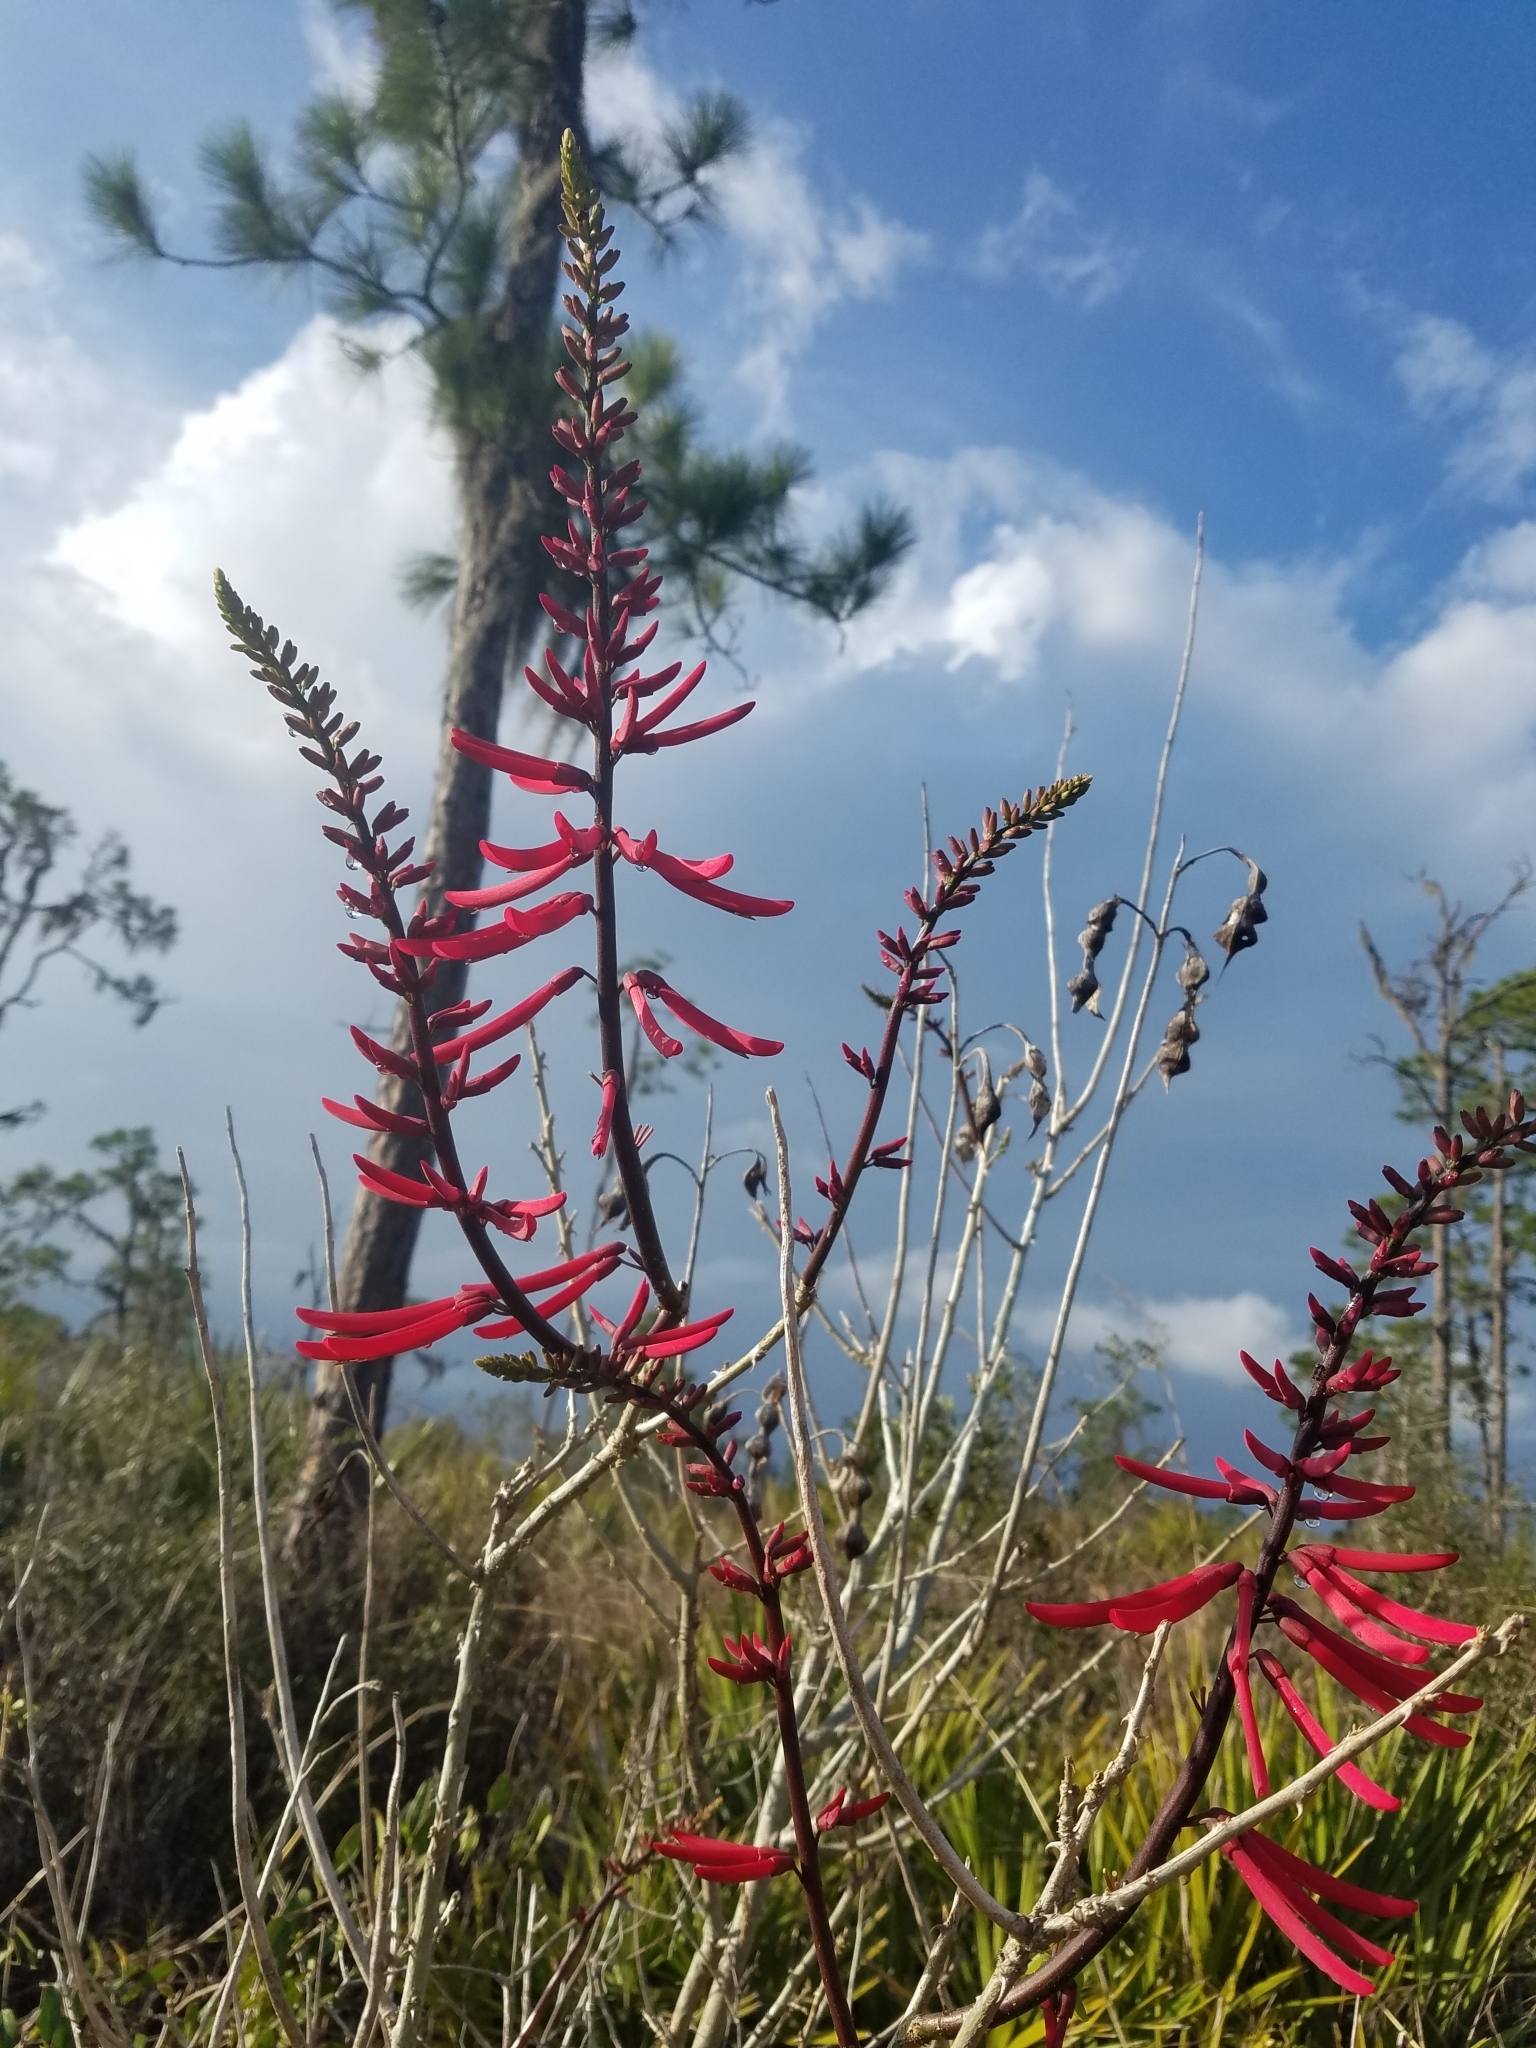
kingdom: Plantae
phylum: Tracheophyta
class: Magnoliopsida
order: Fabales
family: Fabaceae
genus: Erythrina
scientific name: Erythrina herbacea
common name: Coral-bean
